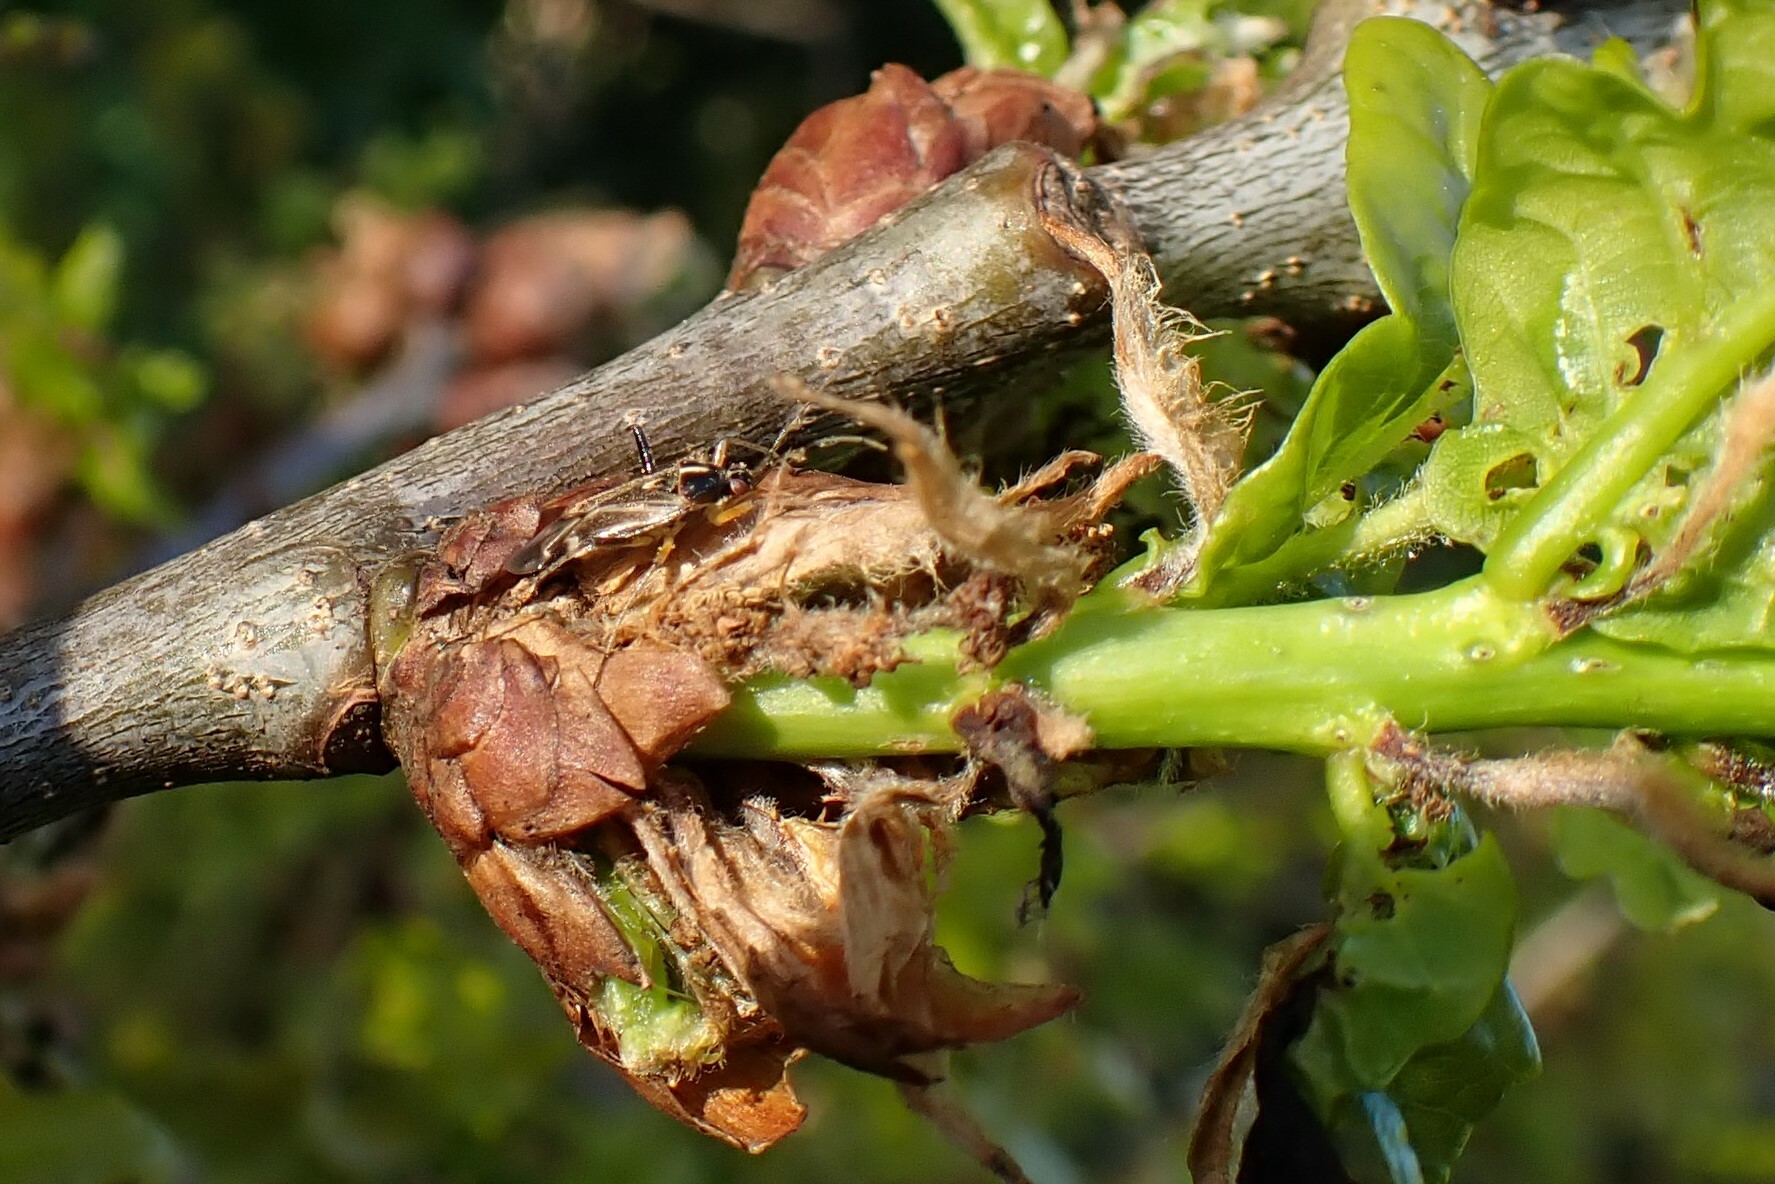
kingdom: Animalia
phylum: Arthropoda
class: Insecta
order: Hemiptera
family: Miridae
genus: Harpocera
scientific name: Harpocera thoracica
